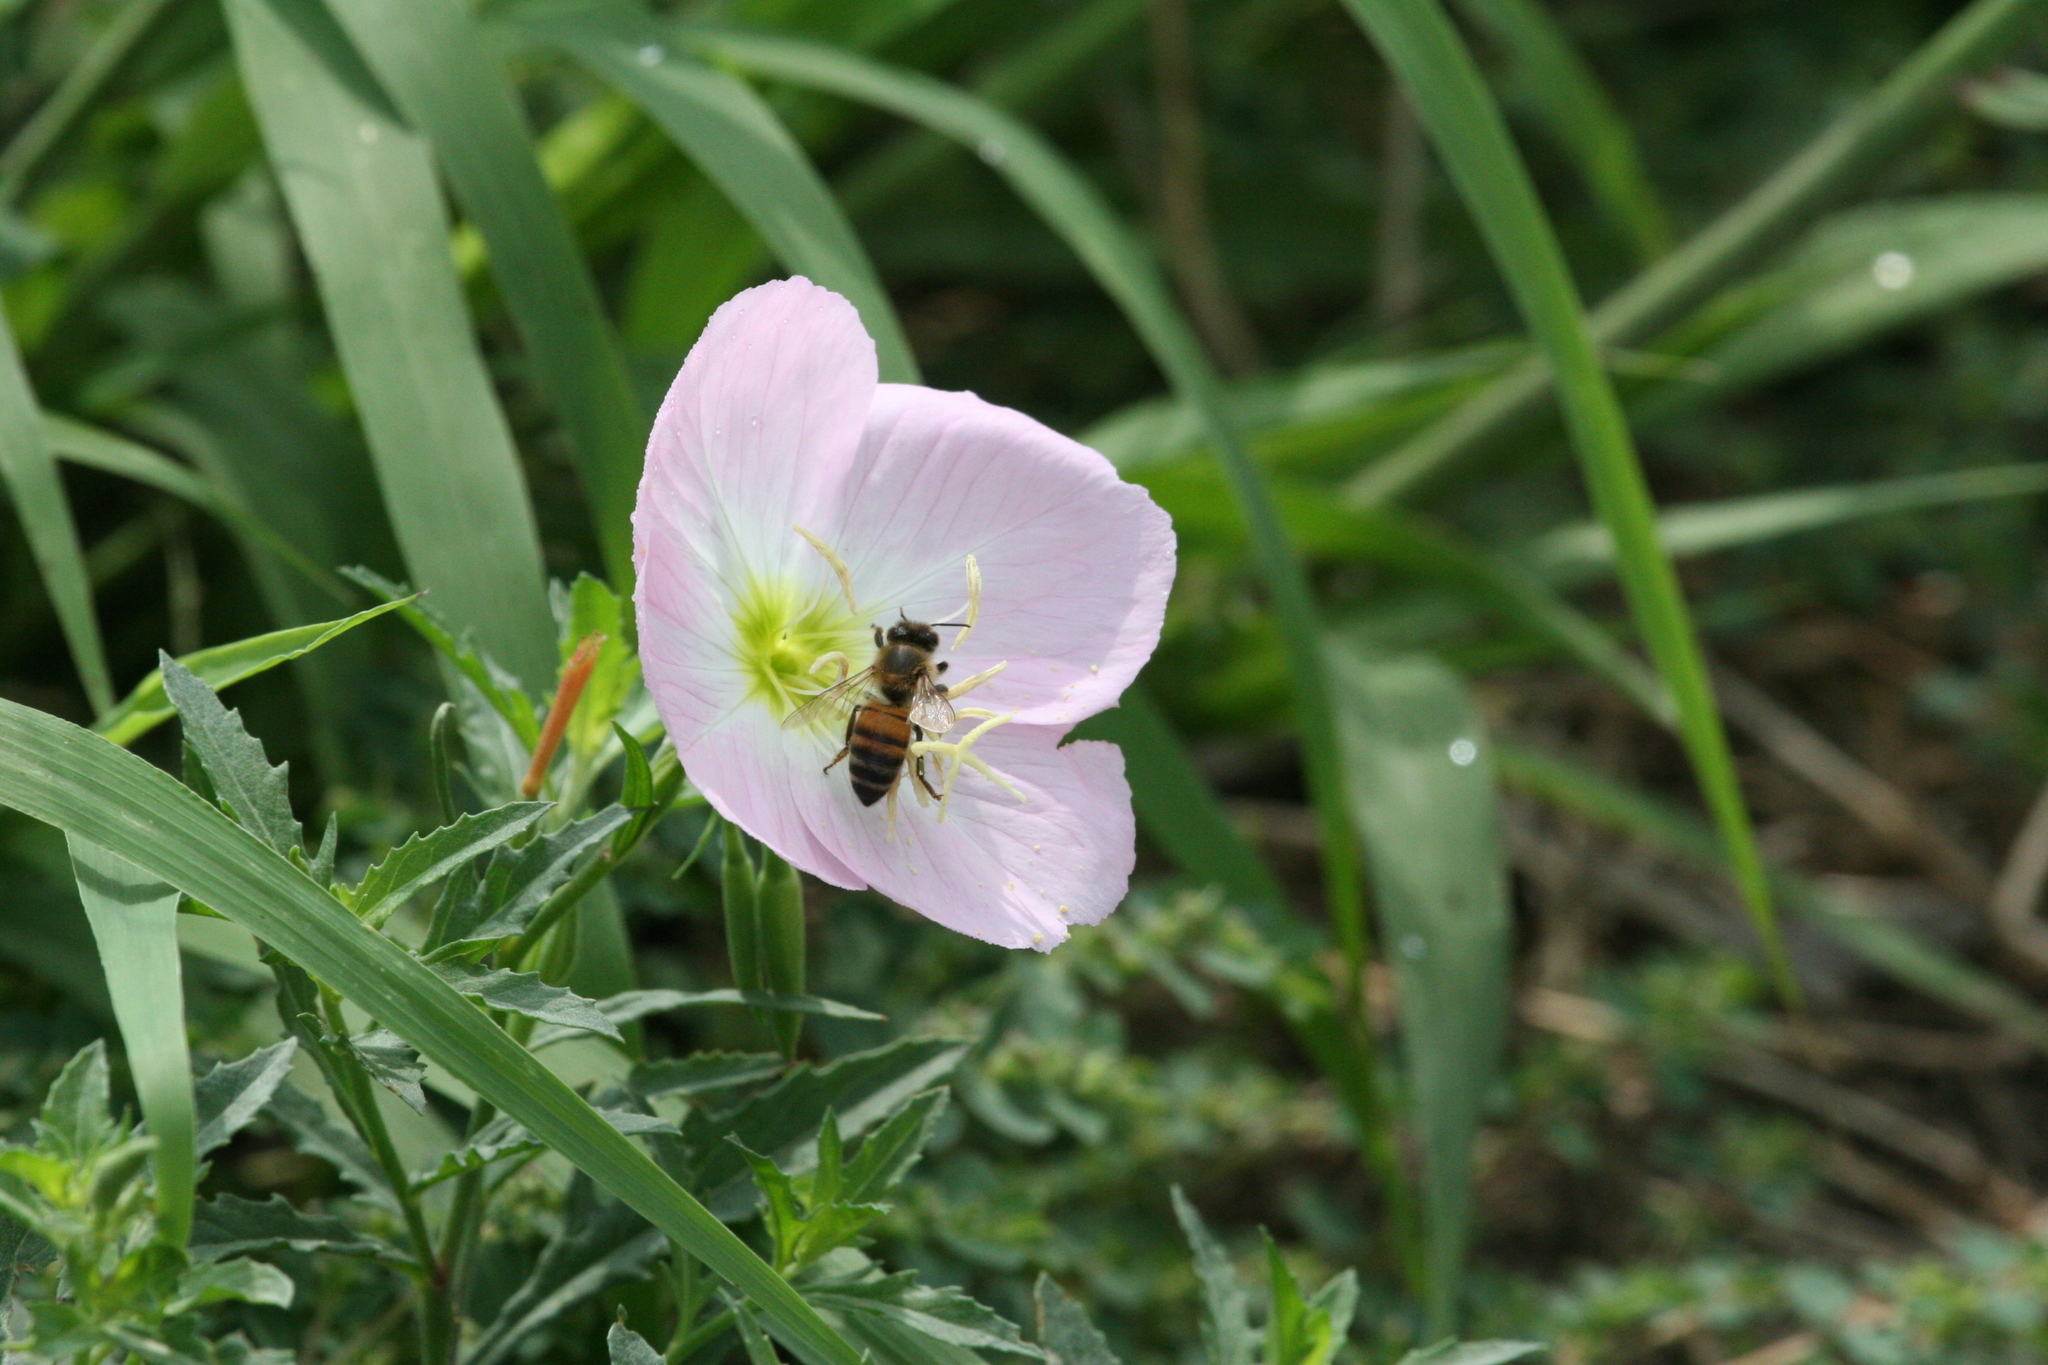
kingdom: Animalia
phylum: Arthropoda
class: Insecta
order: Hymenoptera
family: Apidae
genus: Apis
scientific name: Apis mellifera
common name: Honey bee
